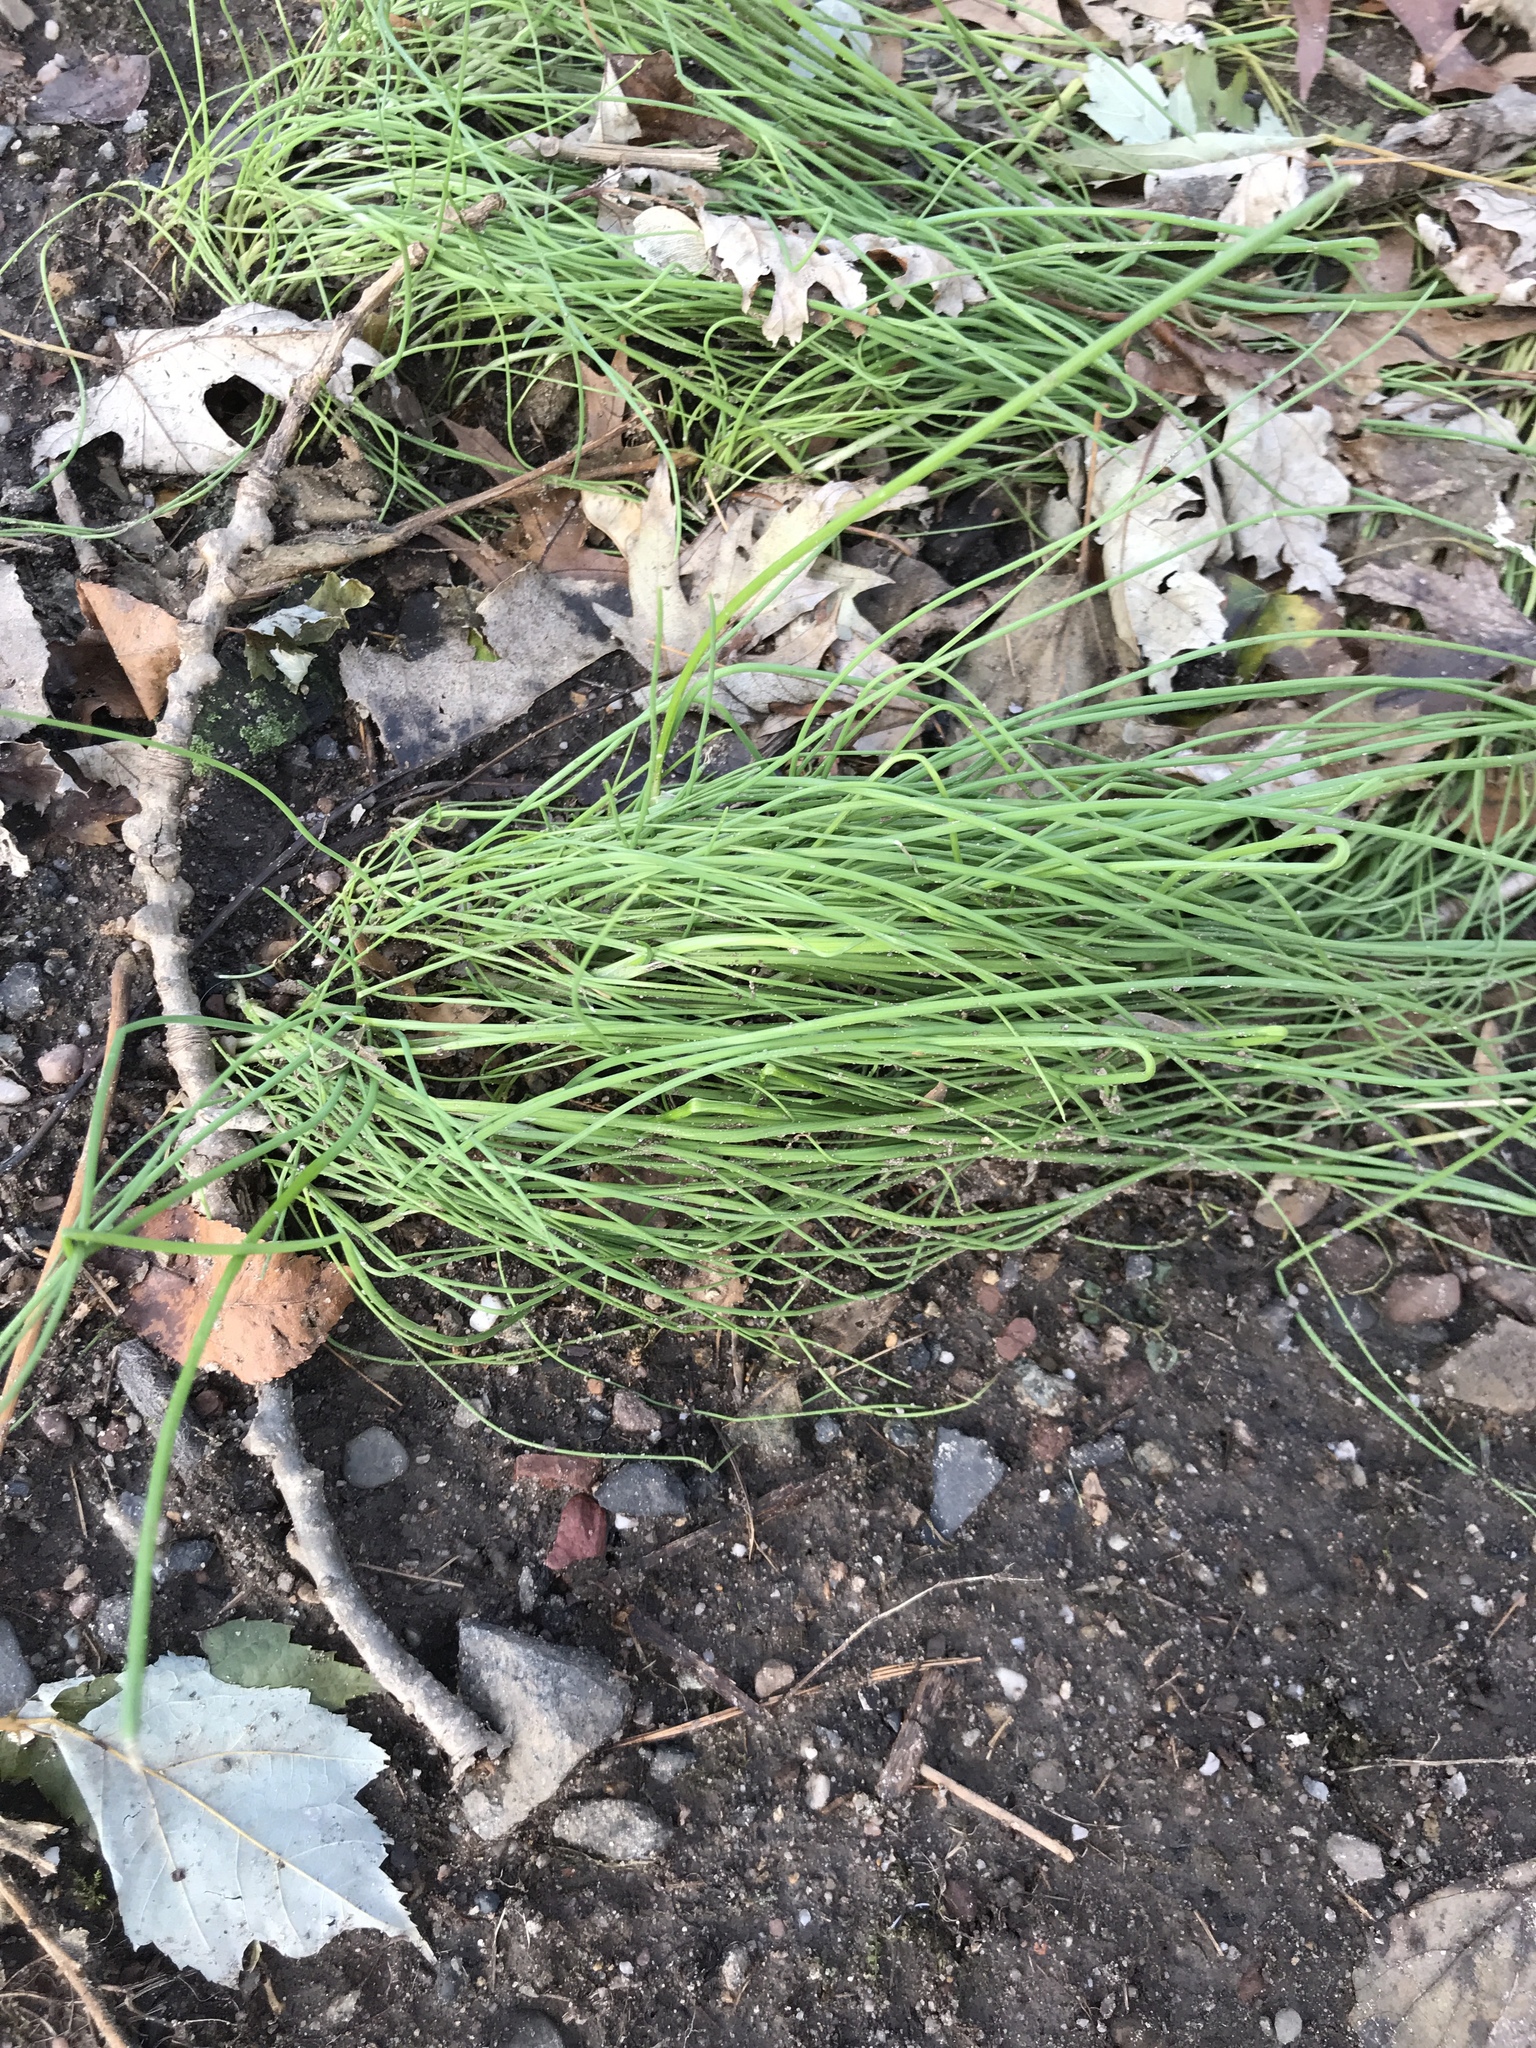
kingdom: Plantae
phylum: Tracheophyta
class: Liliopsida
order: Asparagales
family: Amaryllidaceae
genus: Allium
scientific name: Allium vineale
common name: Crow garlic
